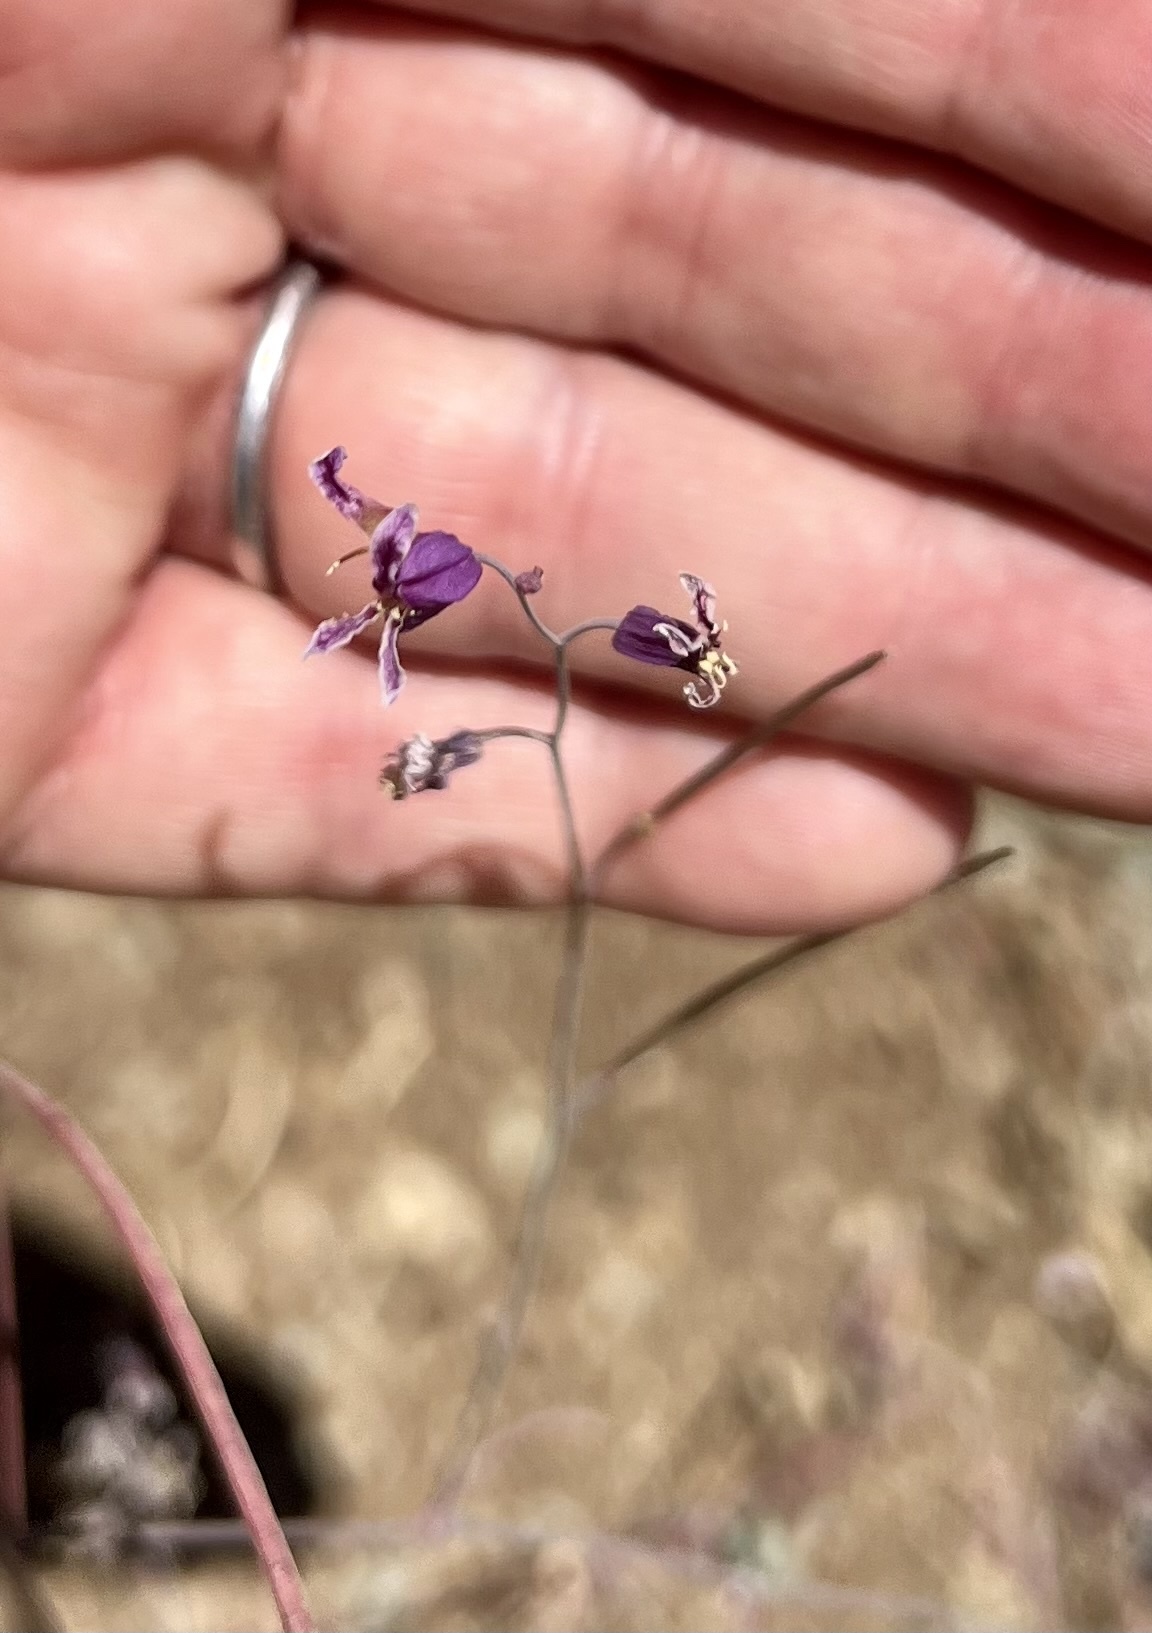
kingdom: Plantae
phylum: Tracheophyta
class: Magnoliopsida
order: Brassicales
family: Brassicaceae
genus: Streptanthus
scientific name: Streptanthus glandulosus
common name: Jewel-flower
